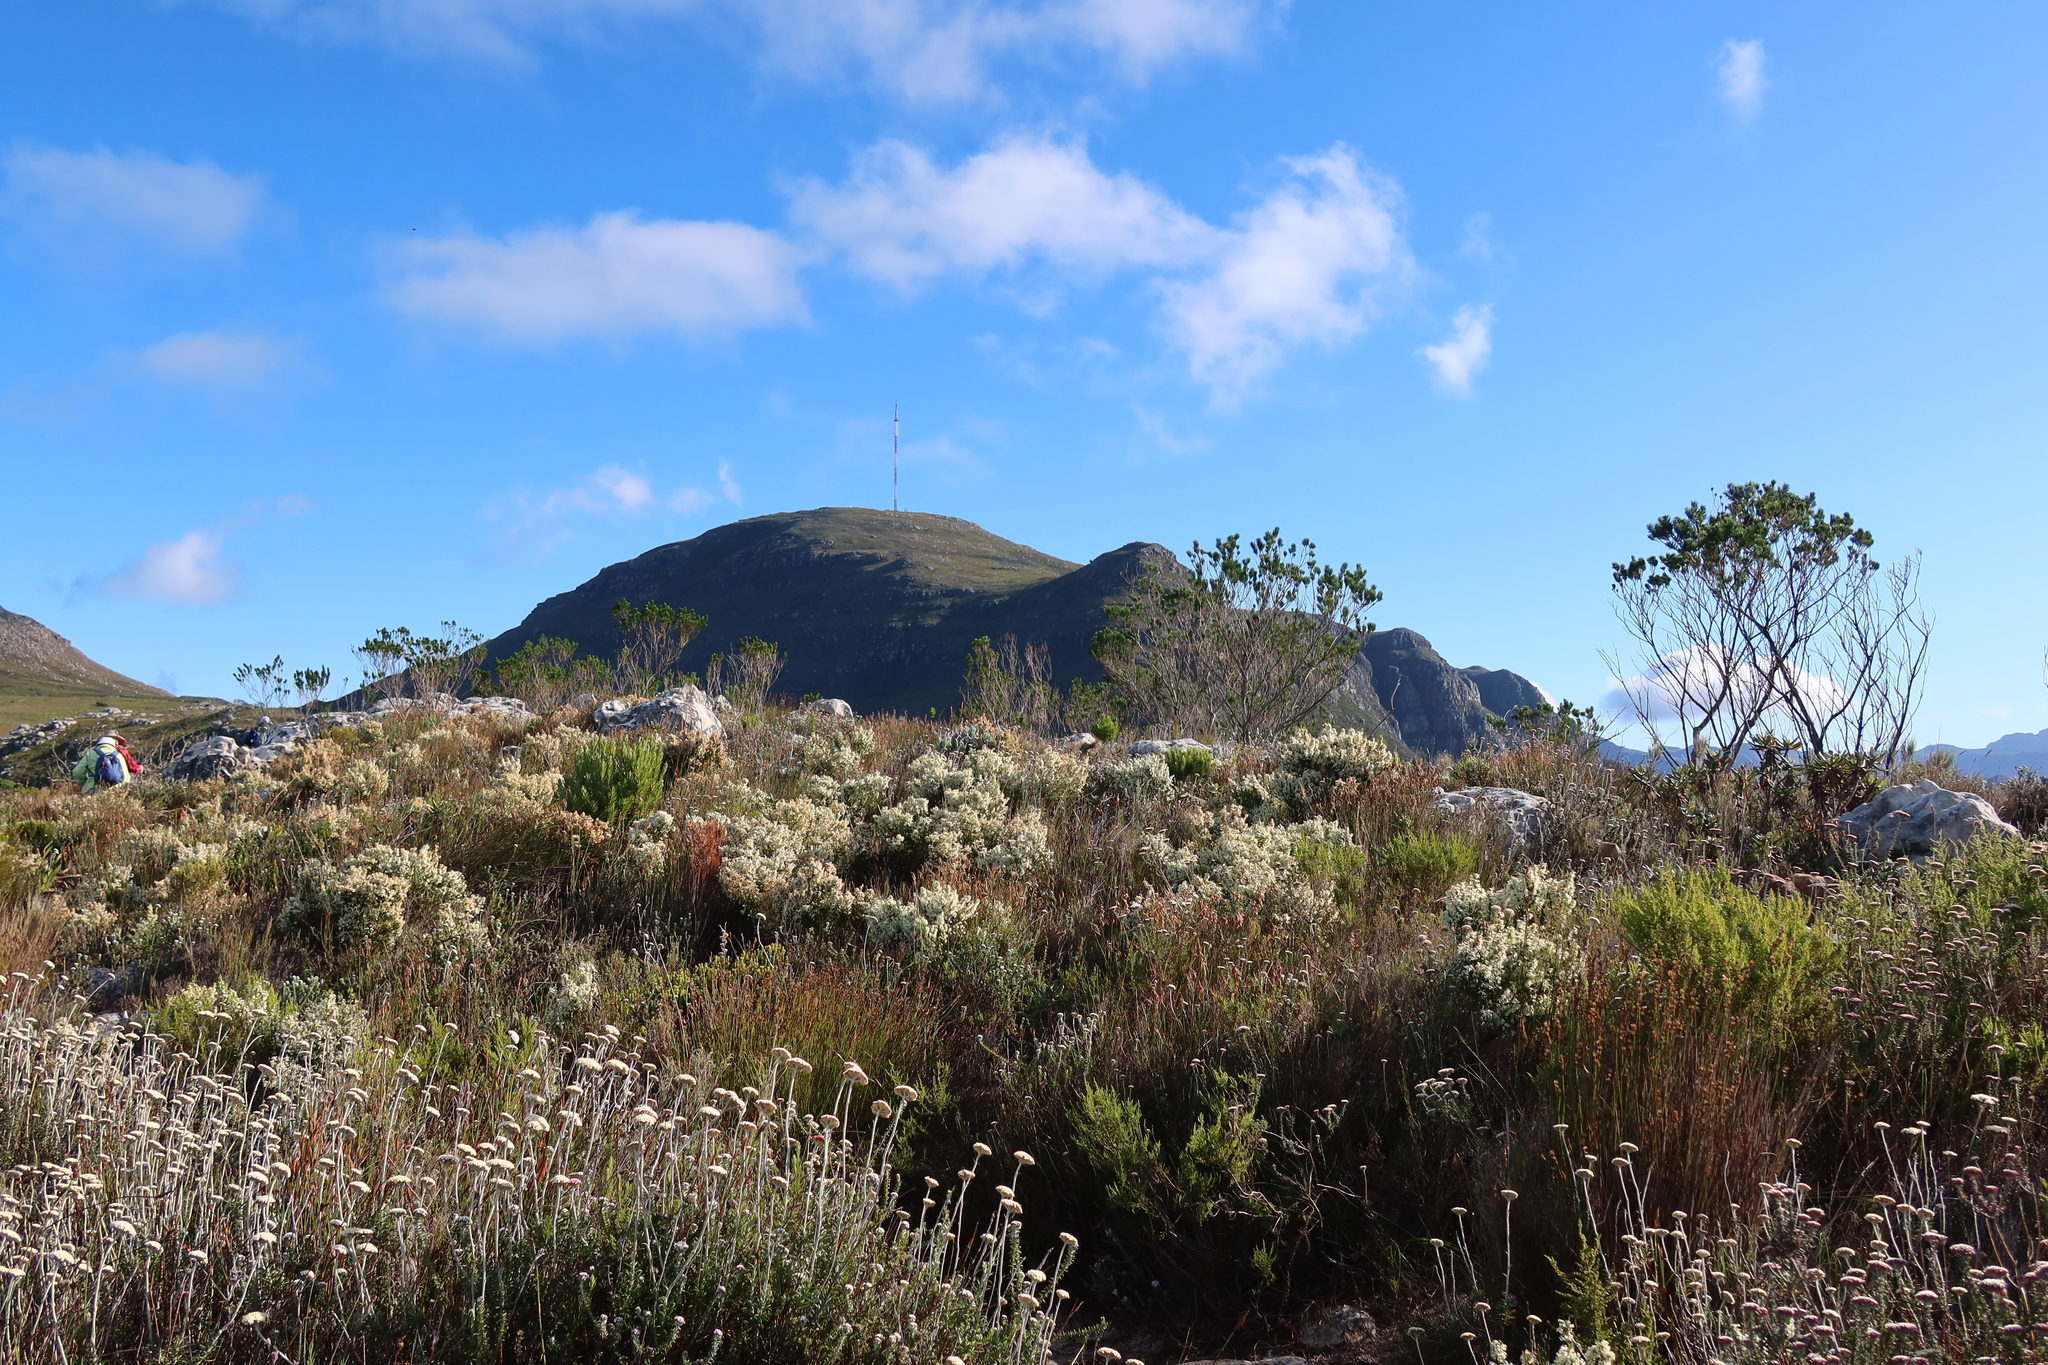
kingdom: Plantae
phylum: Tracheophyta
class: Magnoliopsida
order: Ericales
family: Ericaceae
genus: Erica
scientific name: Erica lutea
